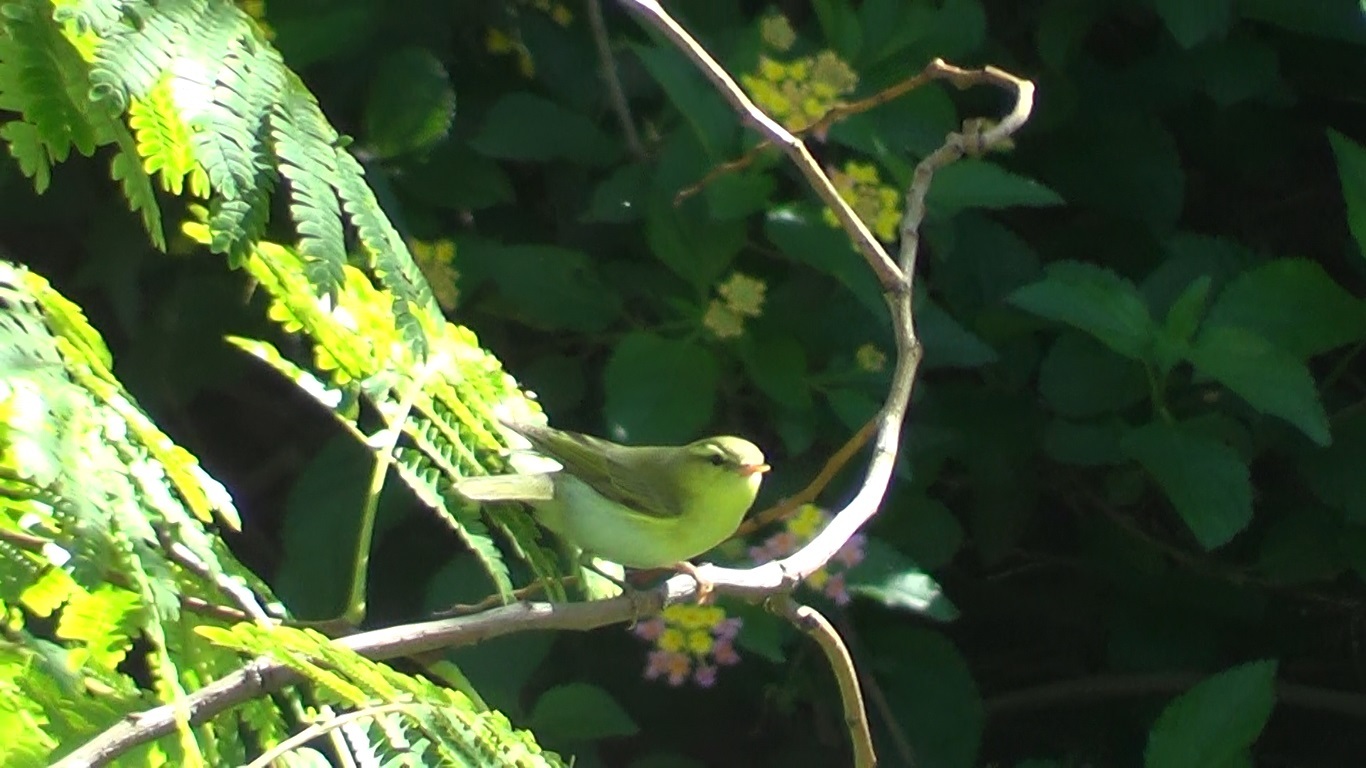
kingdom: Animalia
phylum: Chordata
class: Aves
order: Passeriformes
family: Phylloscopidae
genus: Phylloscopus
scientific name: Phylloscopus sibillatrix
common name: Wood warbler
